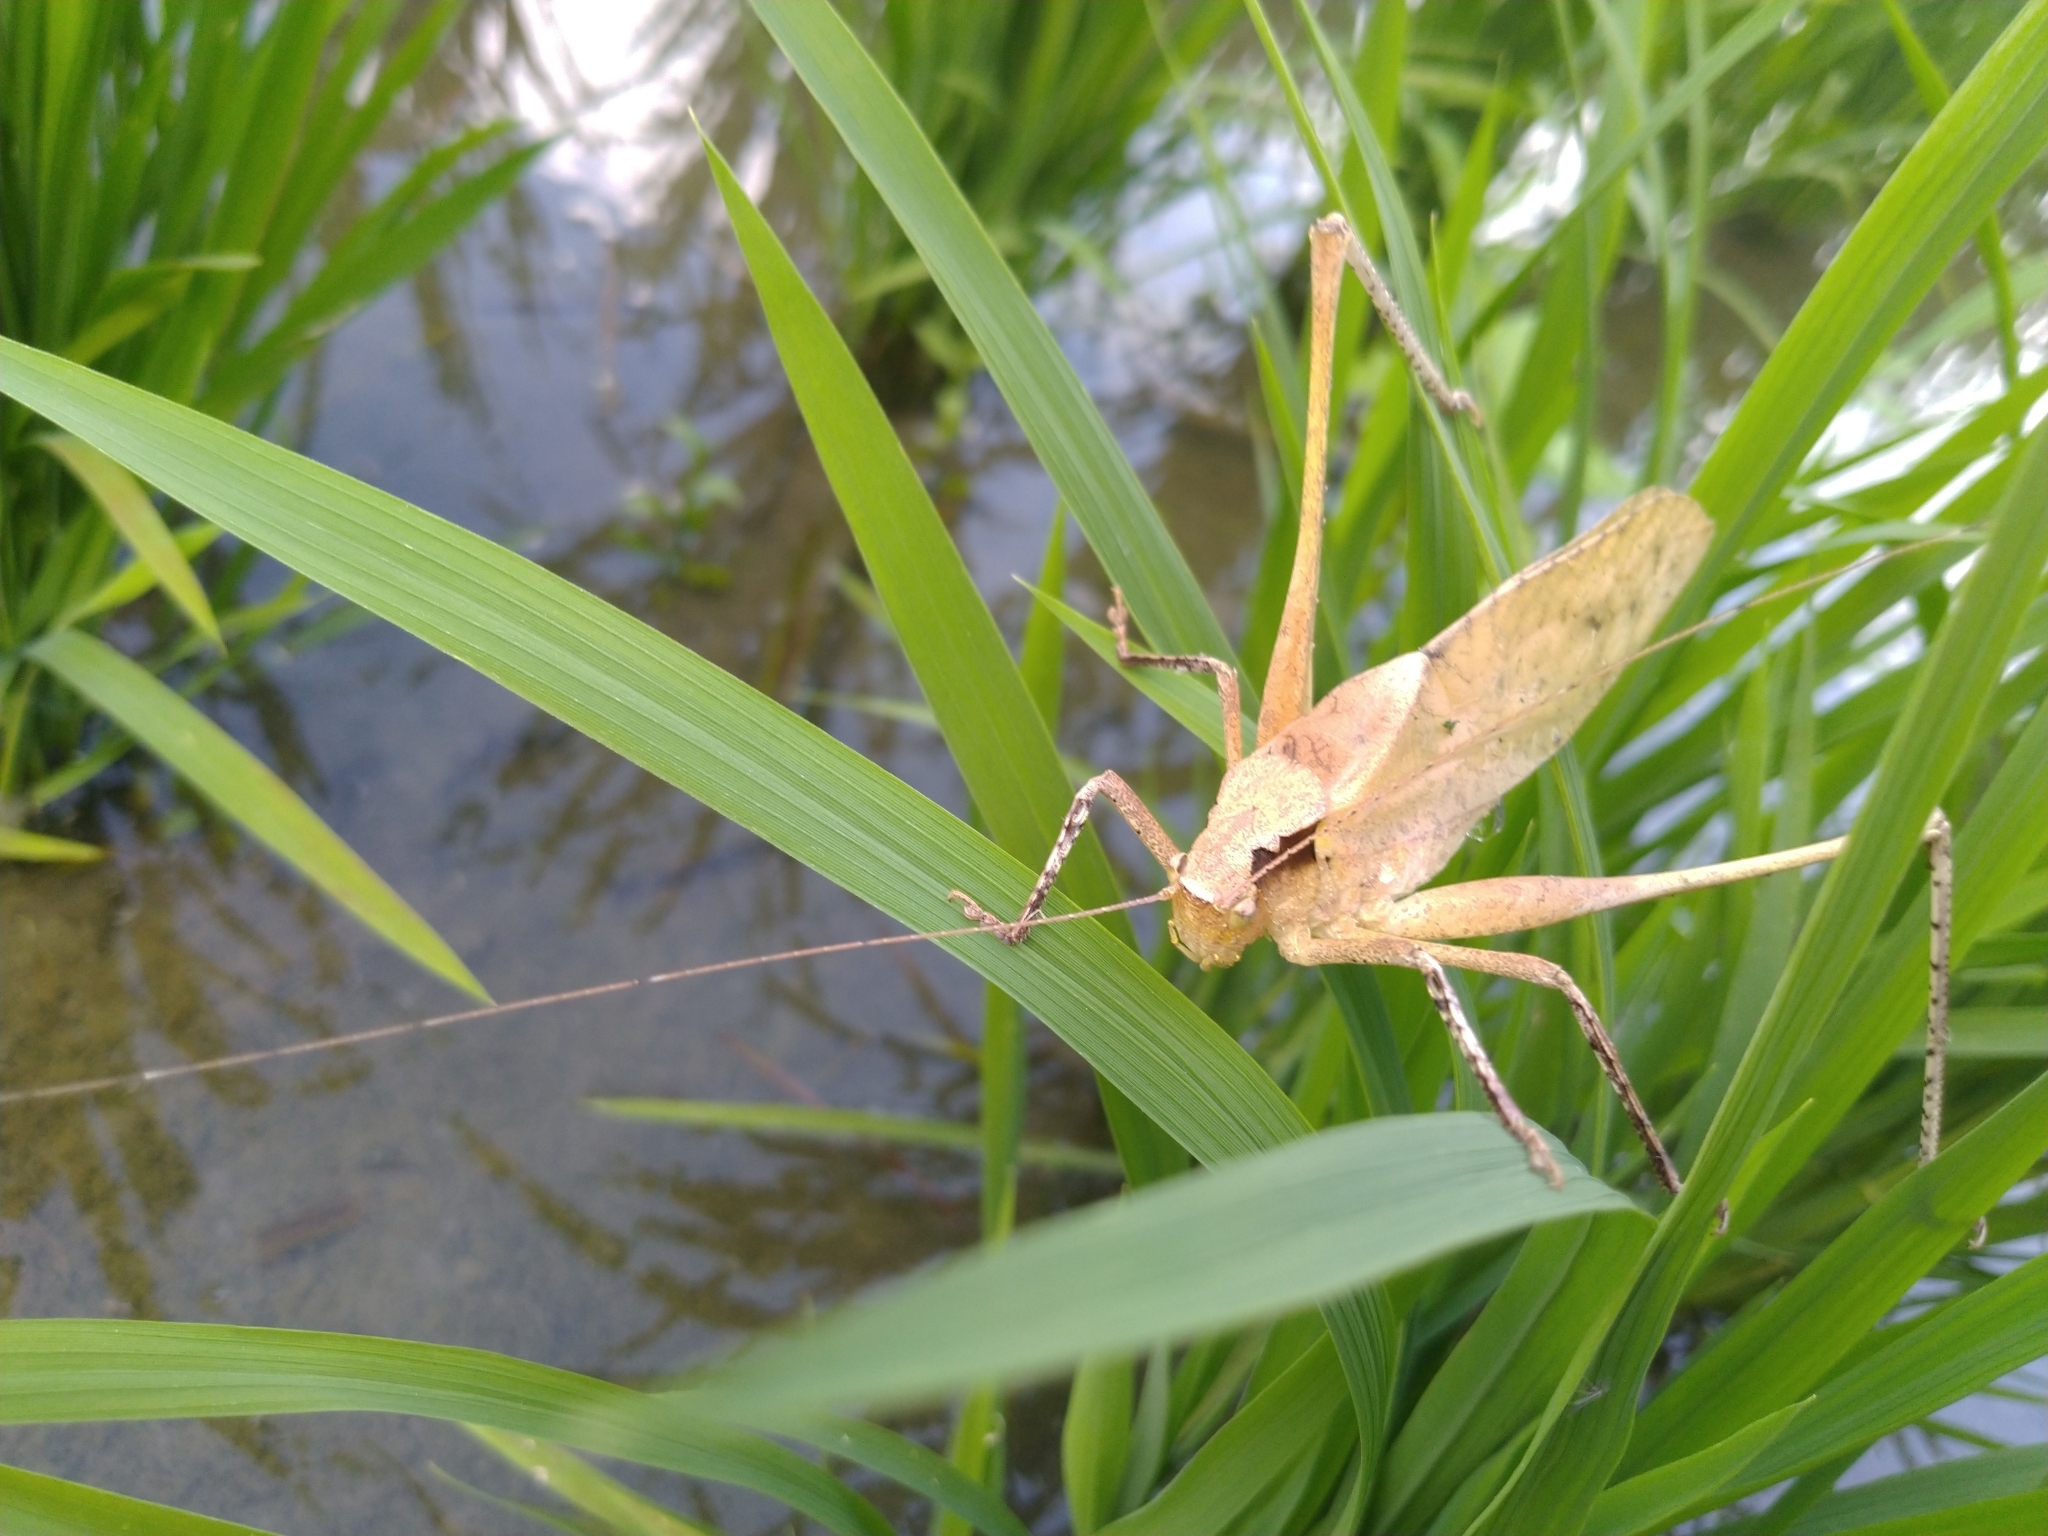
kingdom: Animalia
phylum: Arthropoda
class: Insecta
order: Orthoptera
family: Tettigoniidae
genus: Mecopoda
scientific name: Mecopoda elongata
